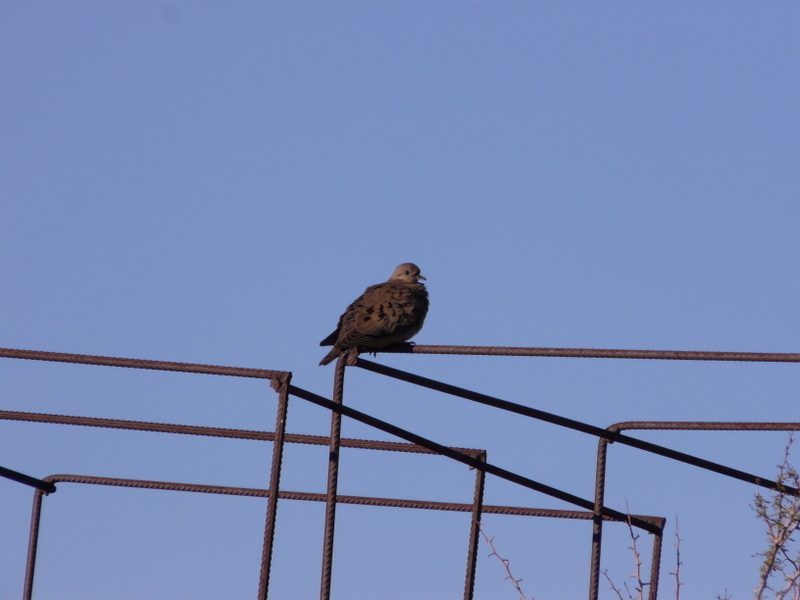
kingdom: Animalia
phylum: Chordata
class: Aves
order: Columbiformes
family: Columbidae
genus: Zenaida
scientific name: Zenaida auriculata
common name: Eared dove
